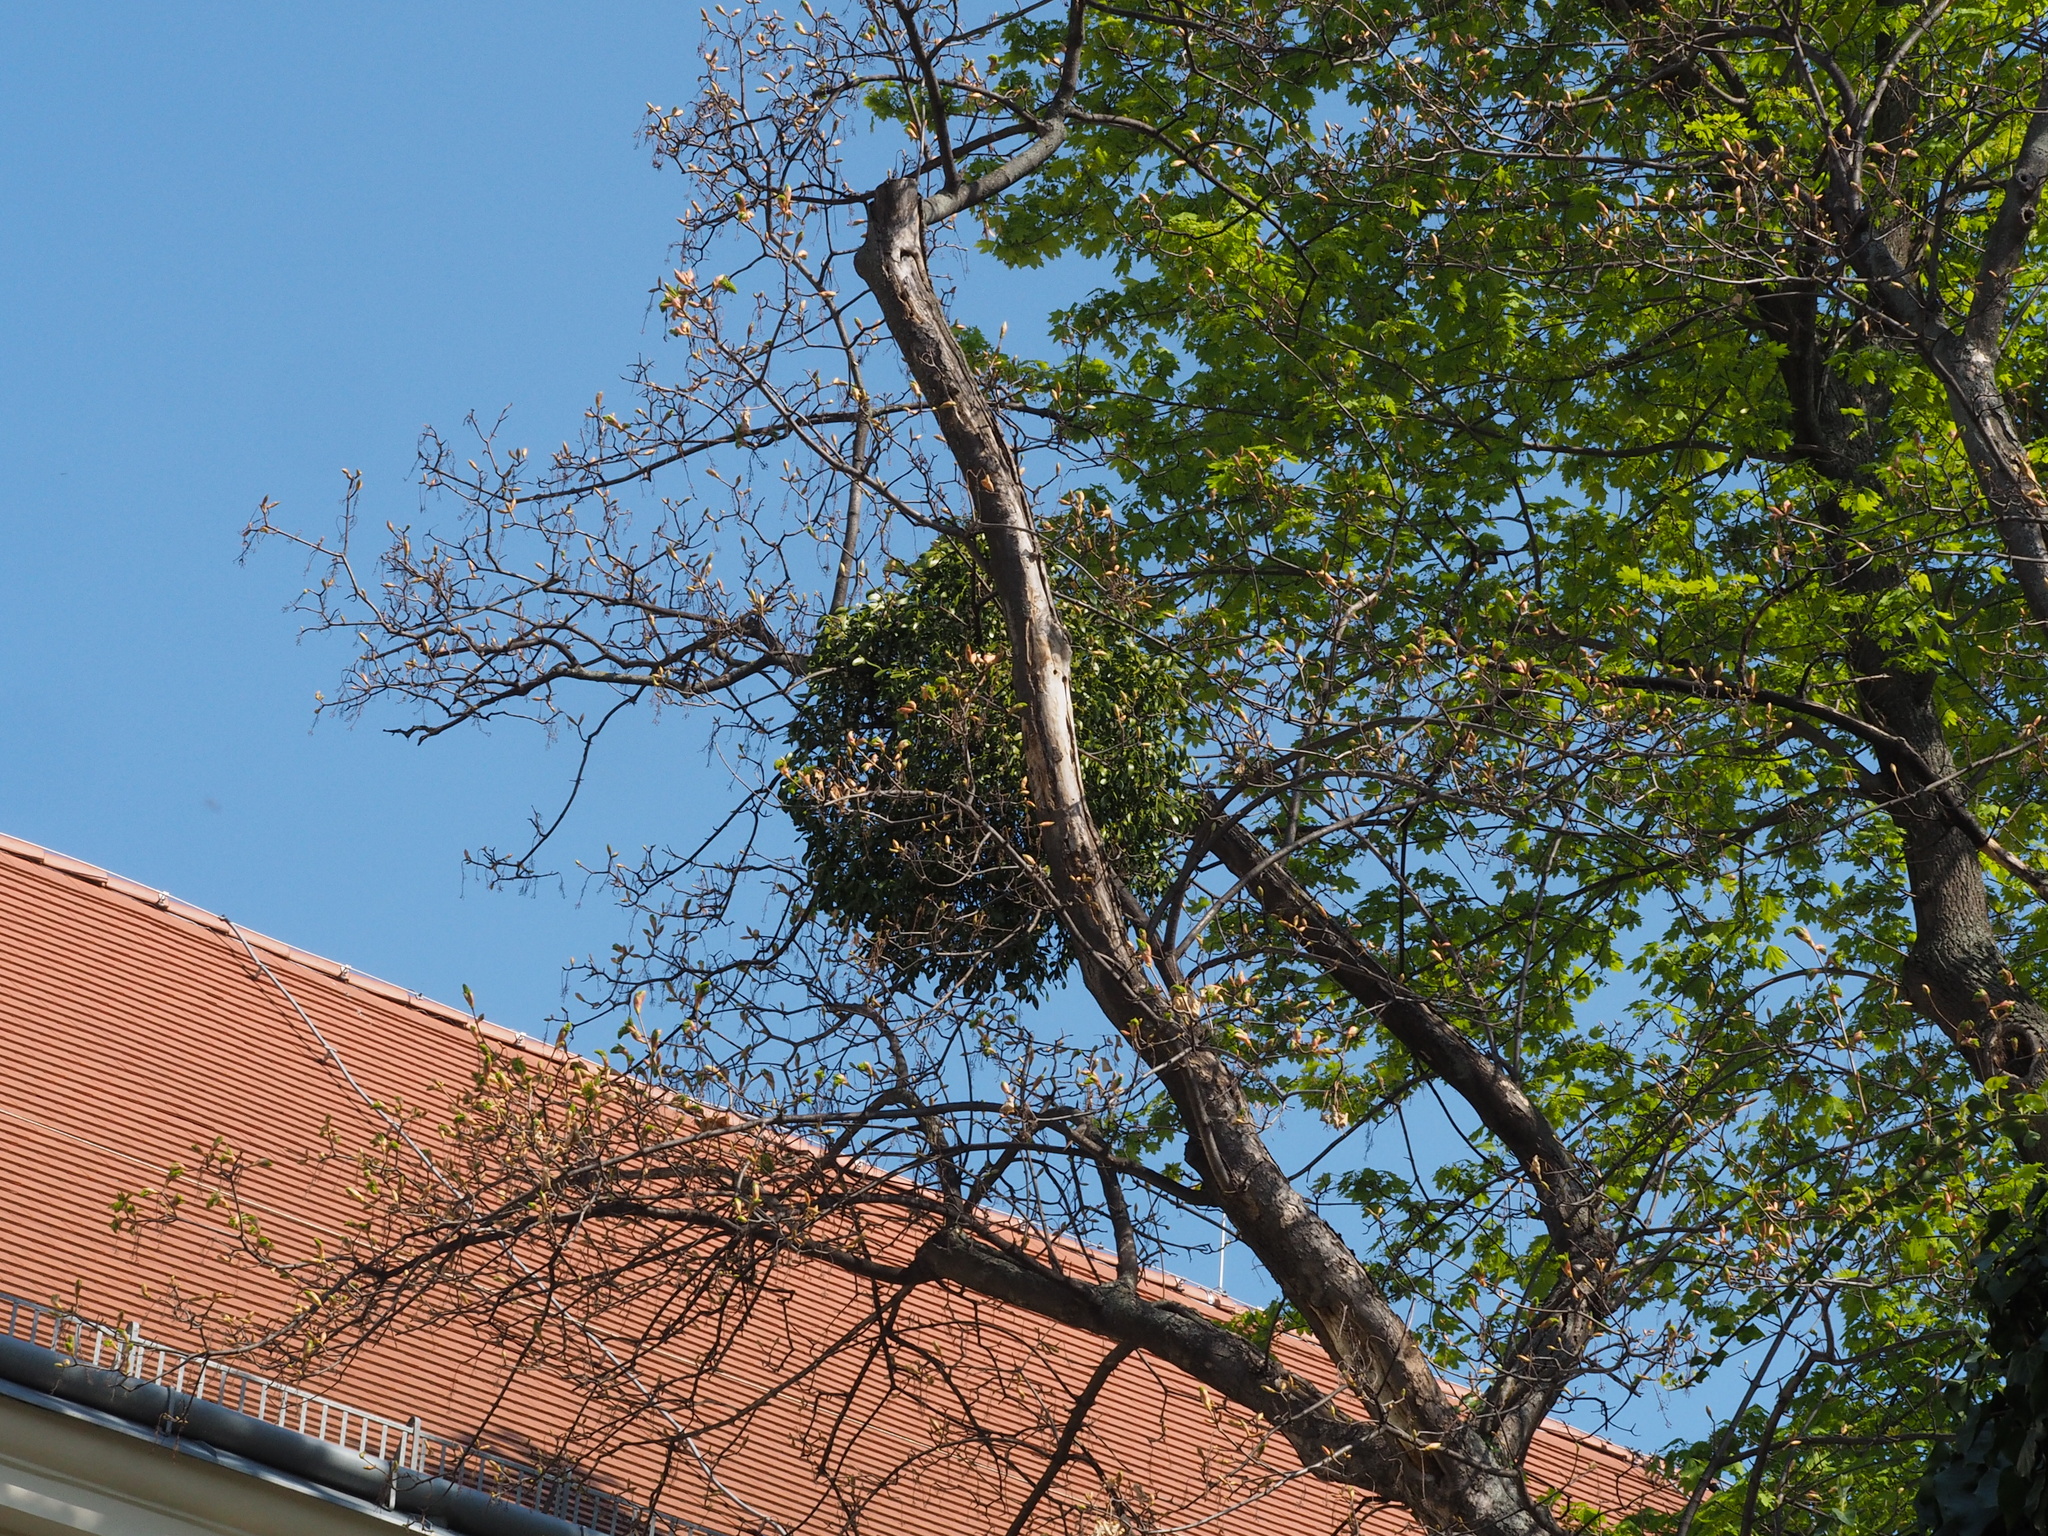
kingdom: Plantae
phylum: Tracheophyta
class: Magnoliopsida
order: Santalales
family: Viscaceae
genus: Viscum
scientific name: Viscum album
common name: Mistletoe
